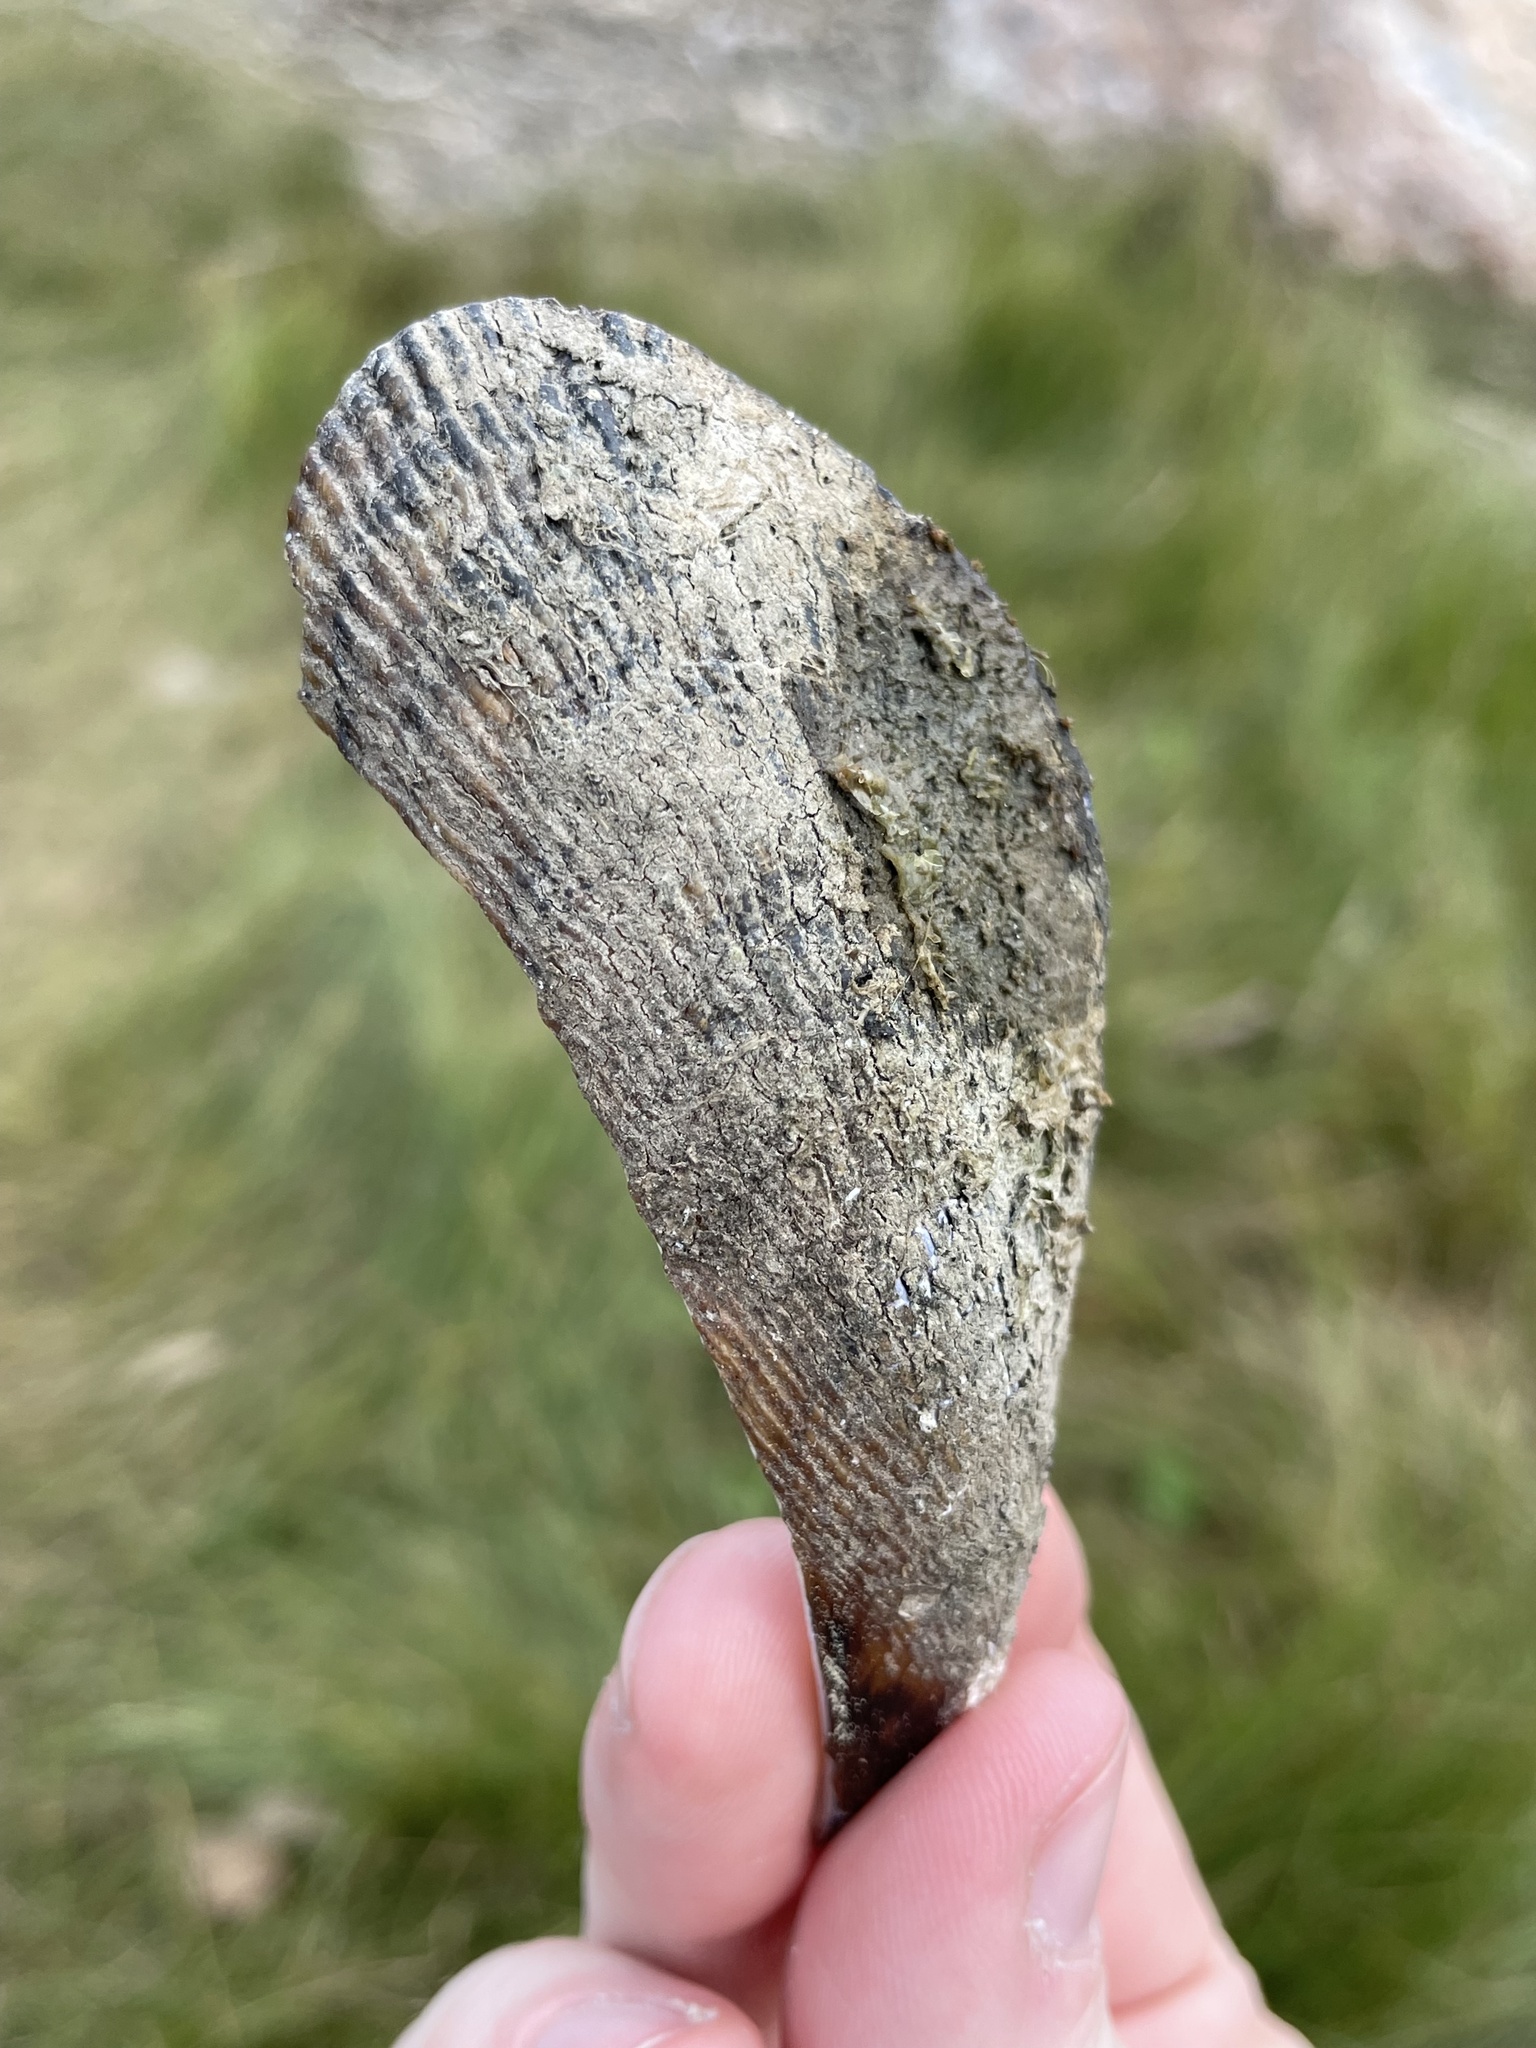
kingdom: Animalia
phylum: Mollusca
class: Bivalvia
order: Mytilida
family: Mytilidae
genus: Geukensia
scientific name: Geukensia demissa
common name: Ribbed mussel
